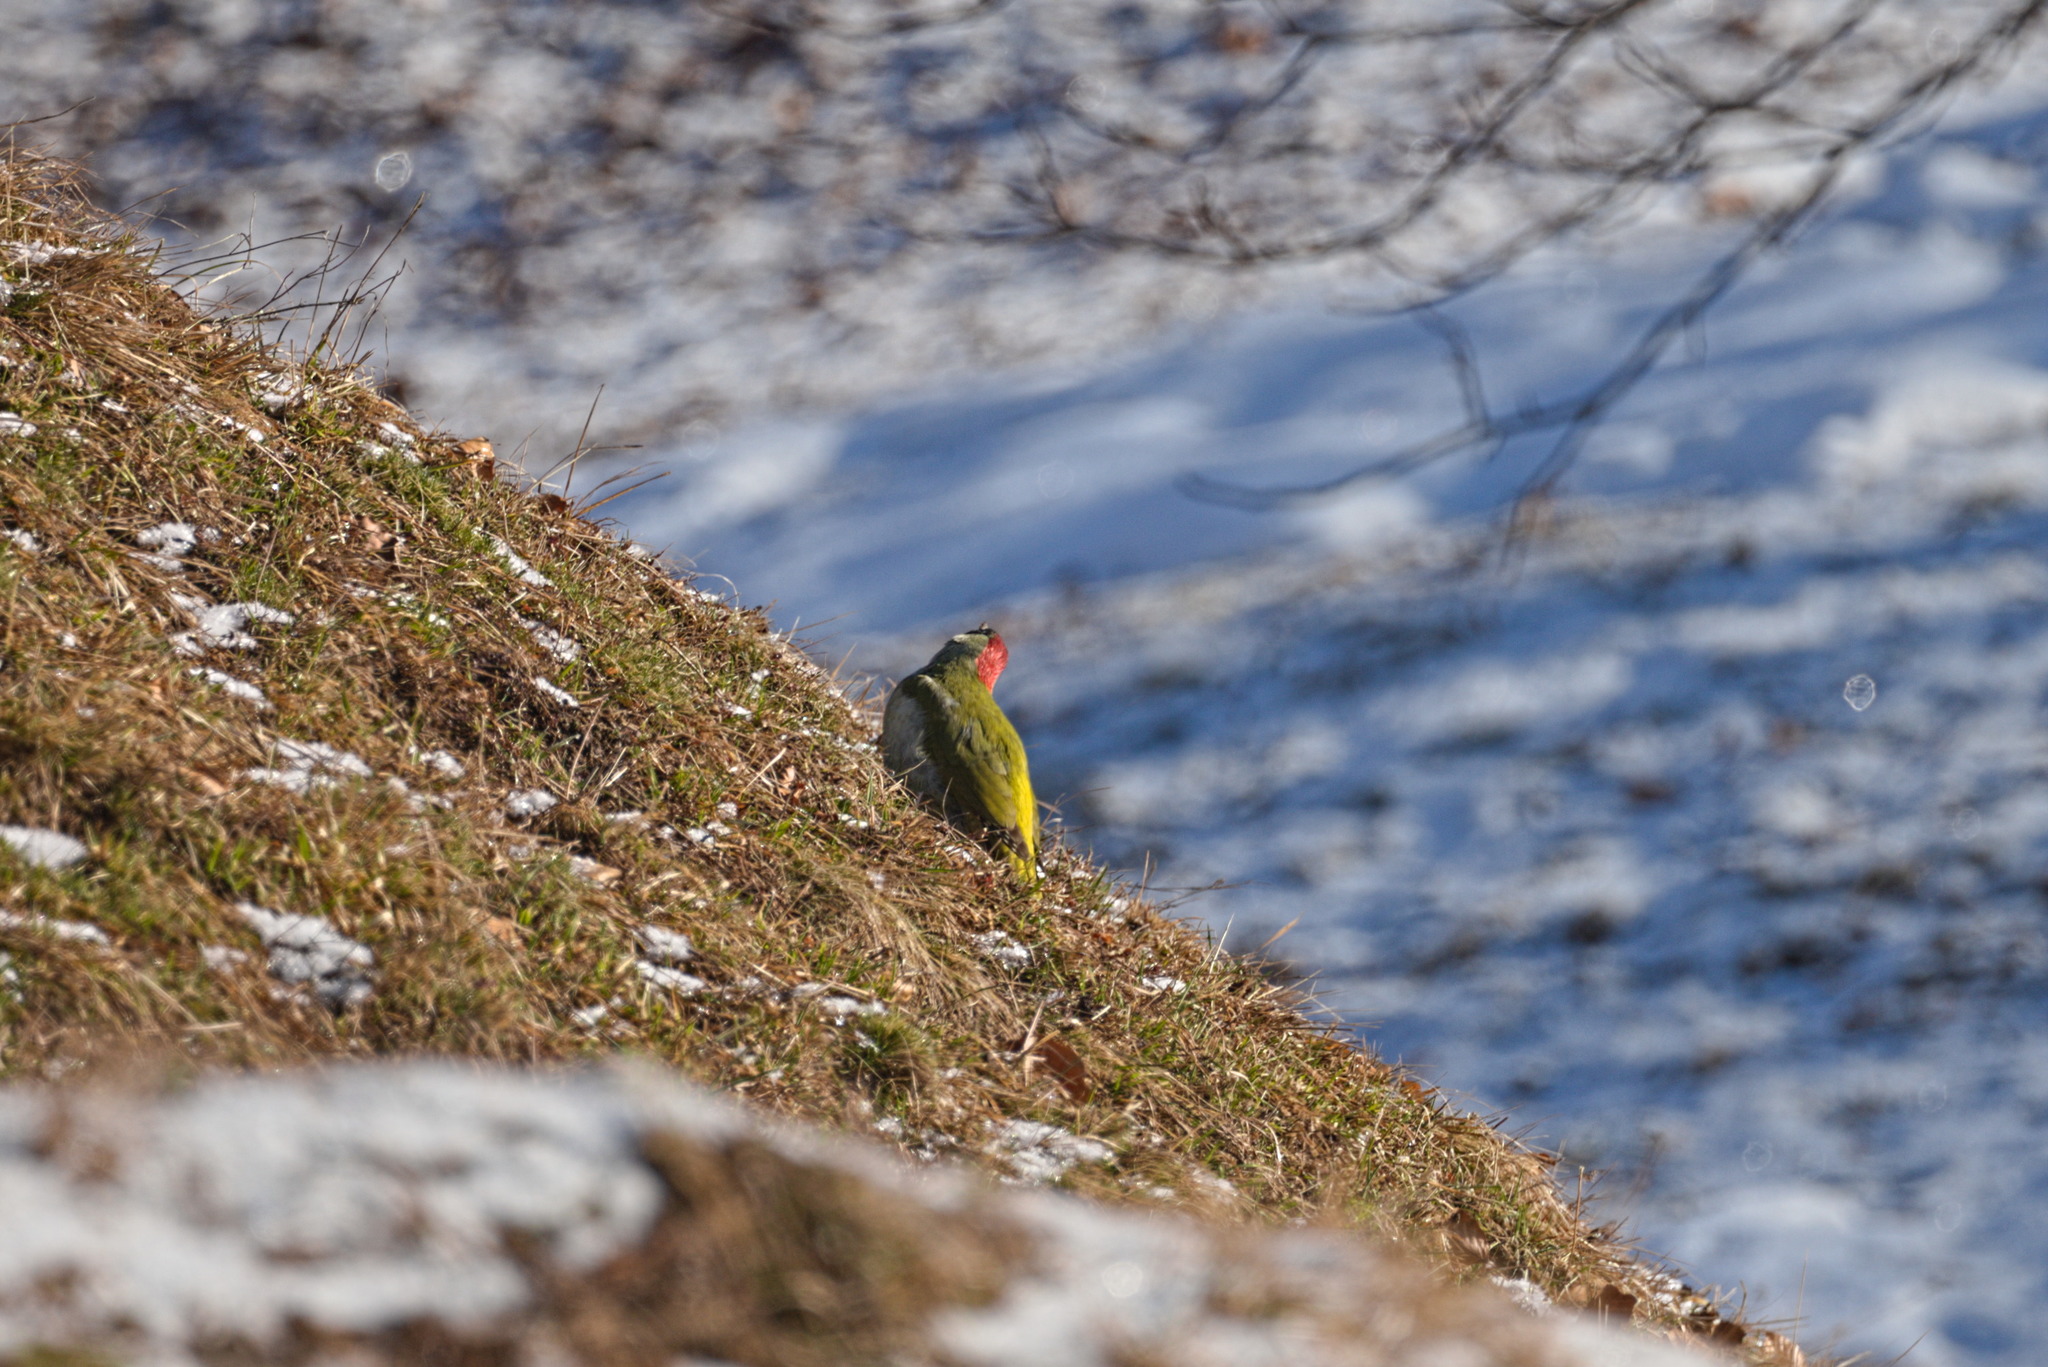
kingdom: Animalia
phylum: Chordata
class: Aves
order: Piciformes
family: Picidae
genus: Picus
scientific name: Picus viridis
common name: European green woodpecker
